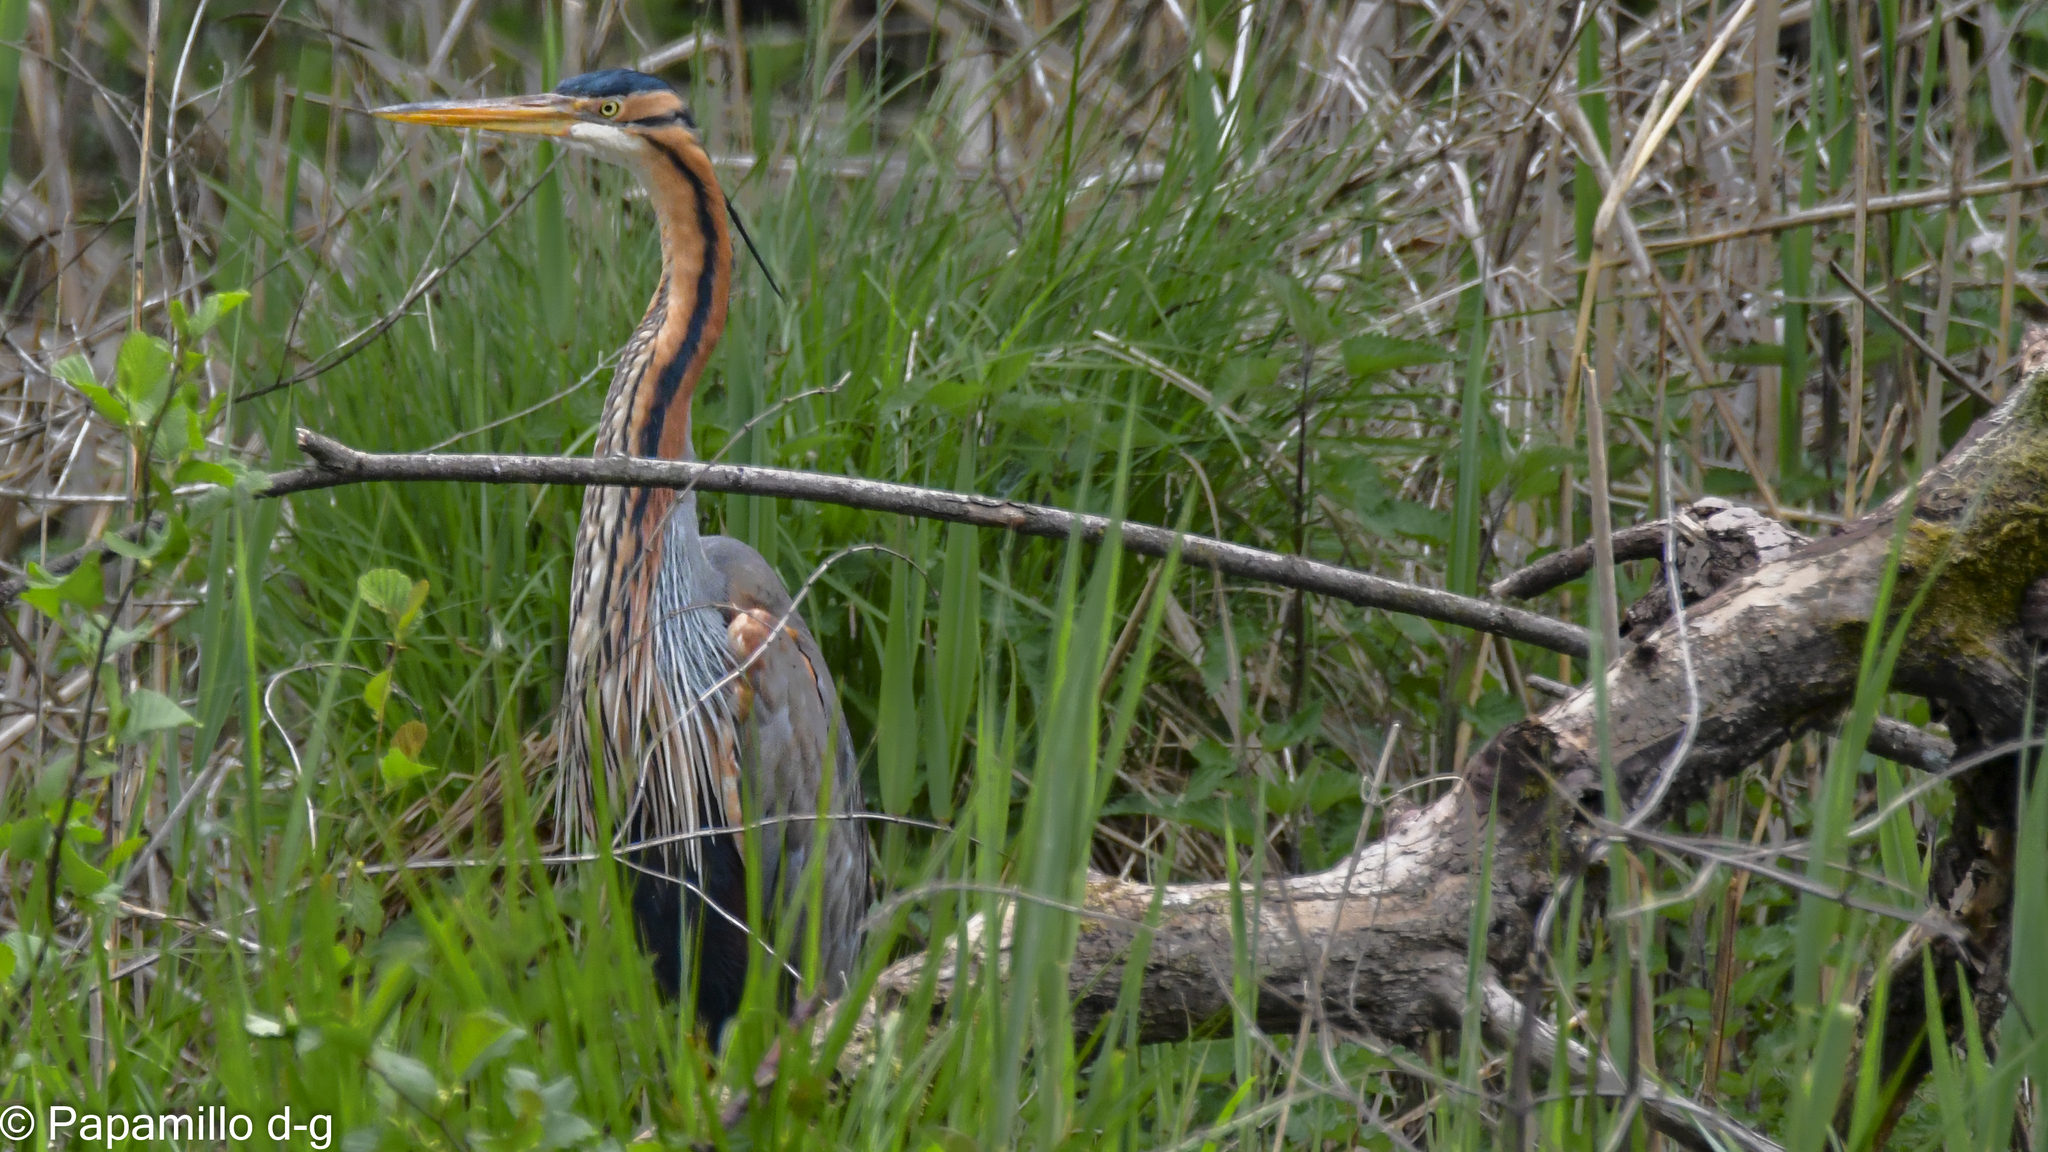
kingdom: Animalia
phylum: Chordata
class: Aves
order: Pelecaniformes
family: Ardeidae
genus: Ardea
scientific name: Ardea purpurea
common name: Purple heron
